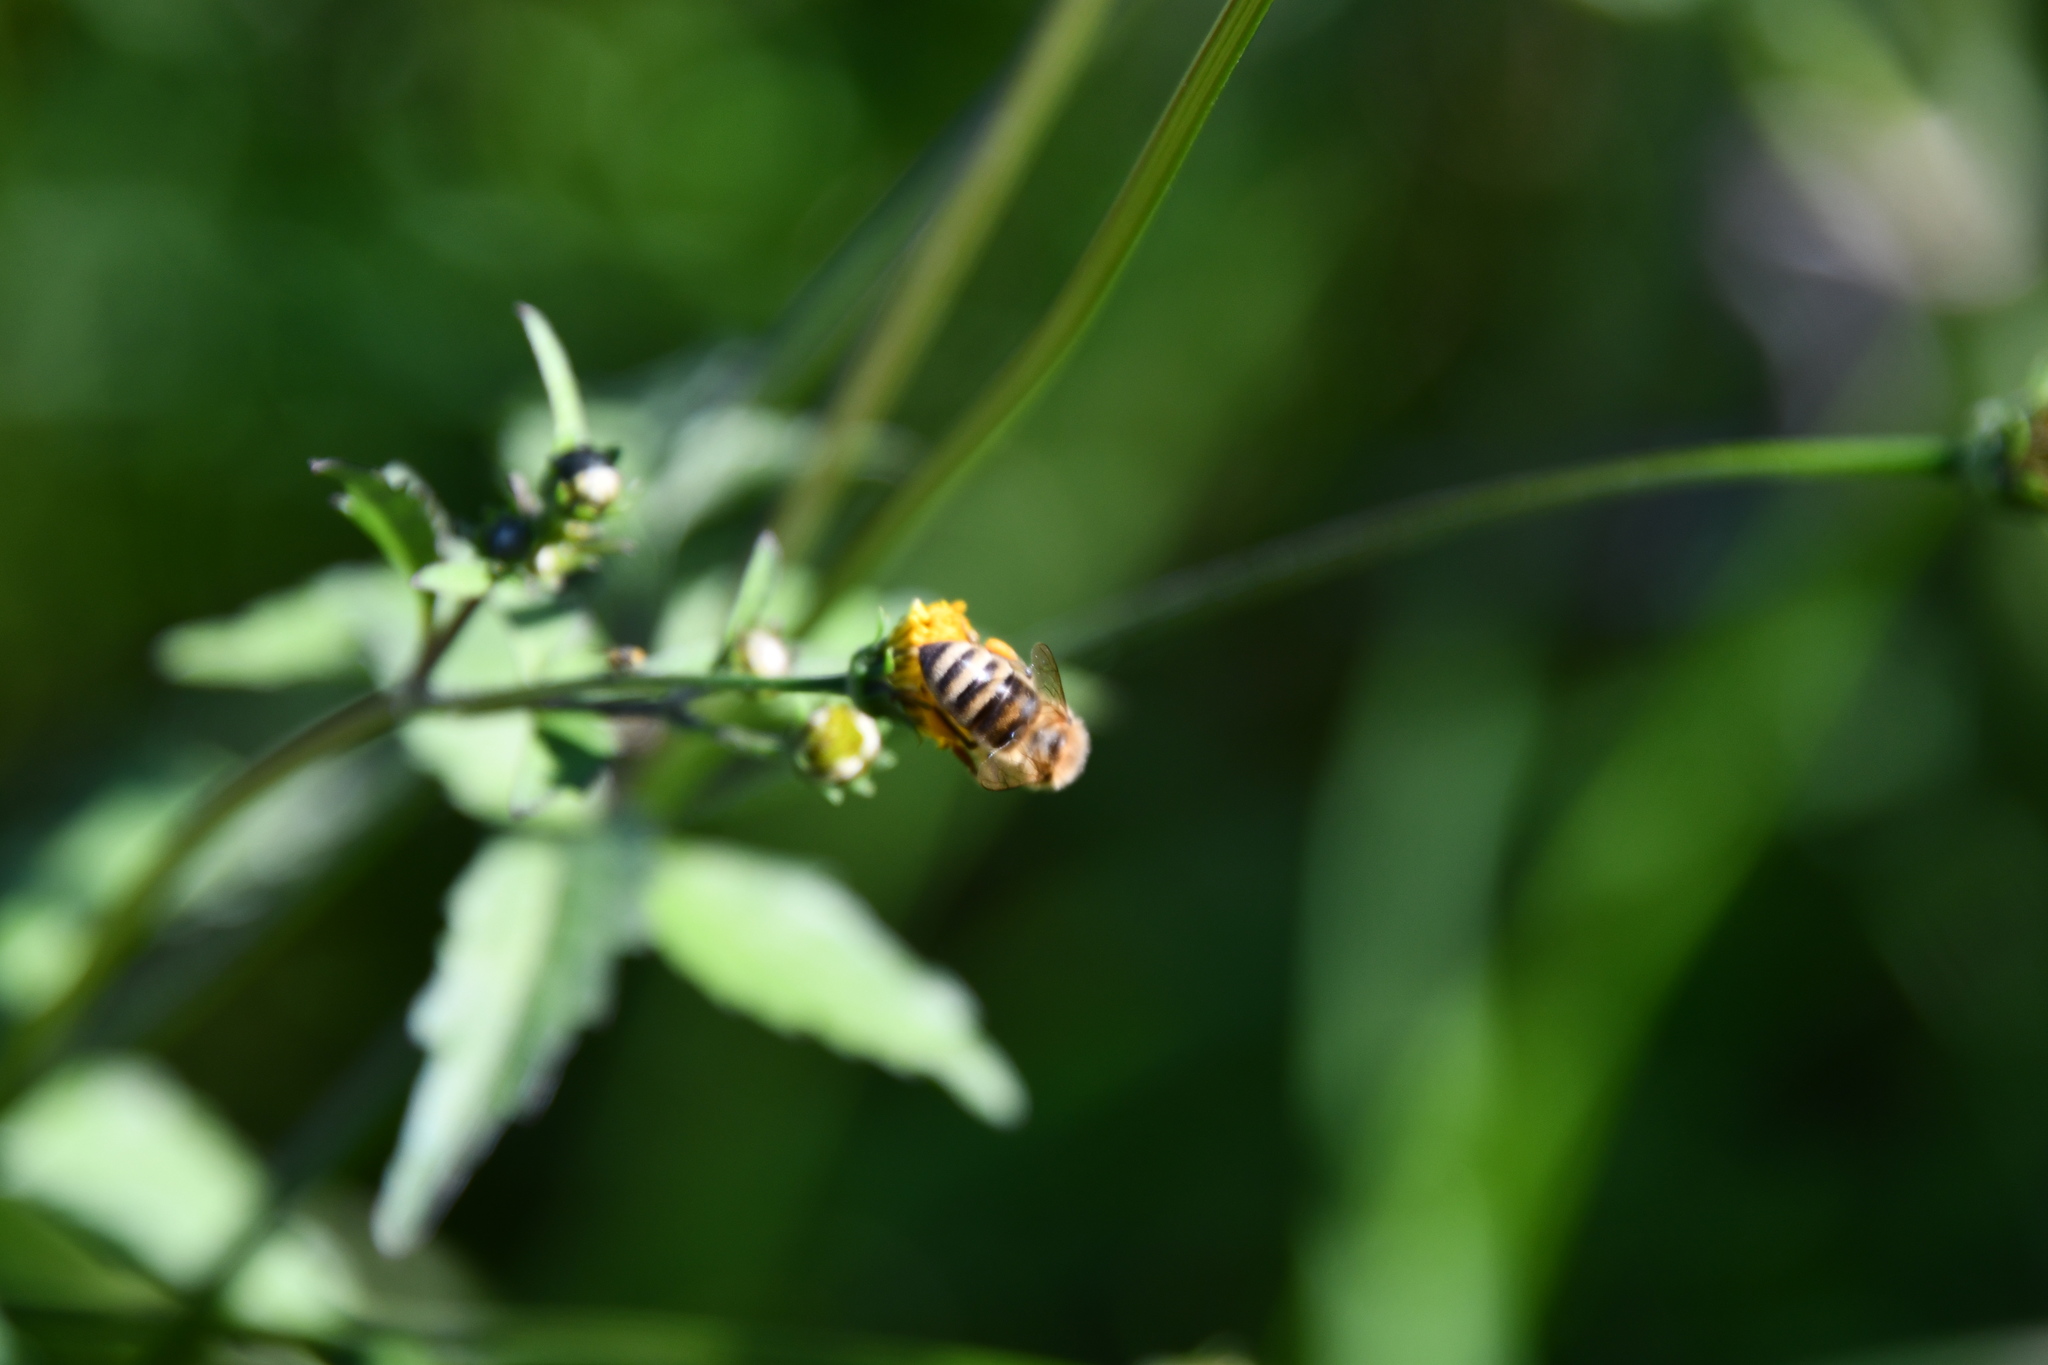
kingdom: Animalia
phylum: Arthropoda
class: Insecta
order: Hymenoptera
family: Apidae
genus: Apis
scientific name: Apis mellifera
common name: Honey bee
